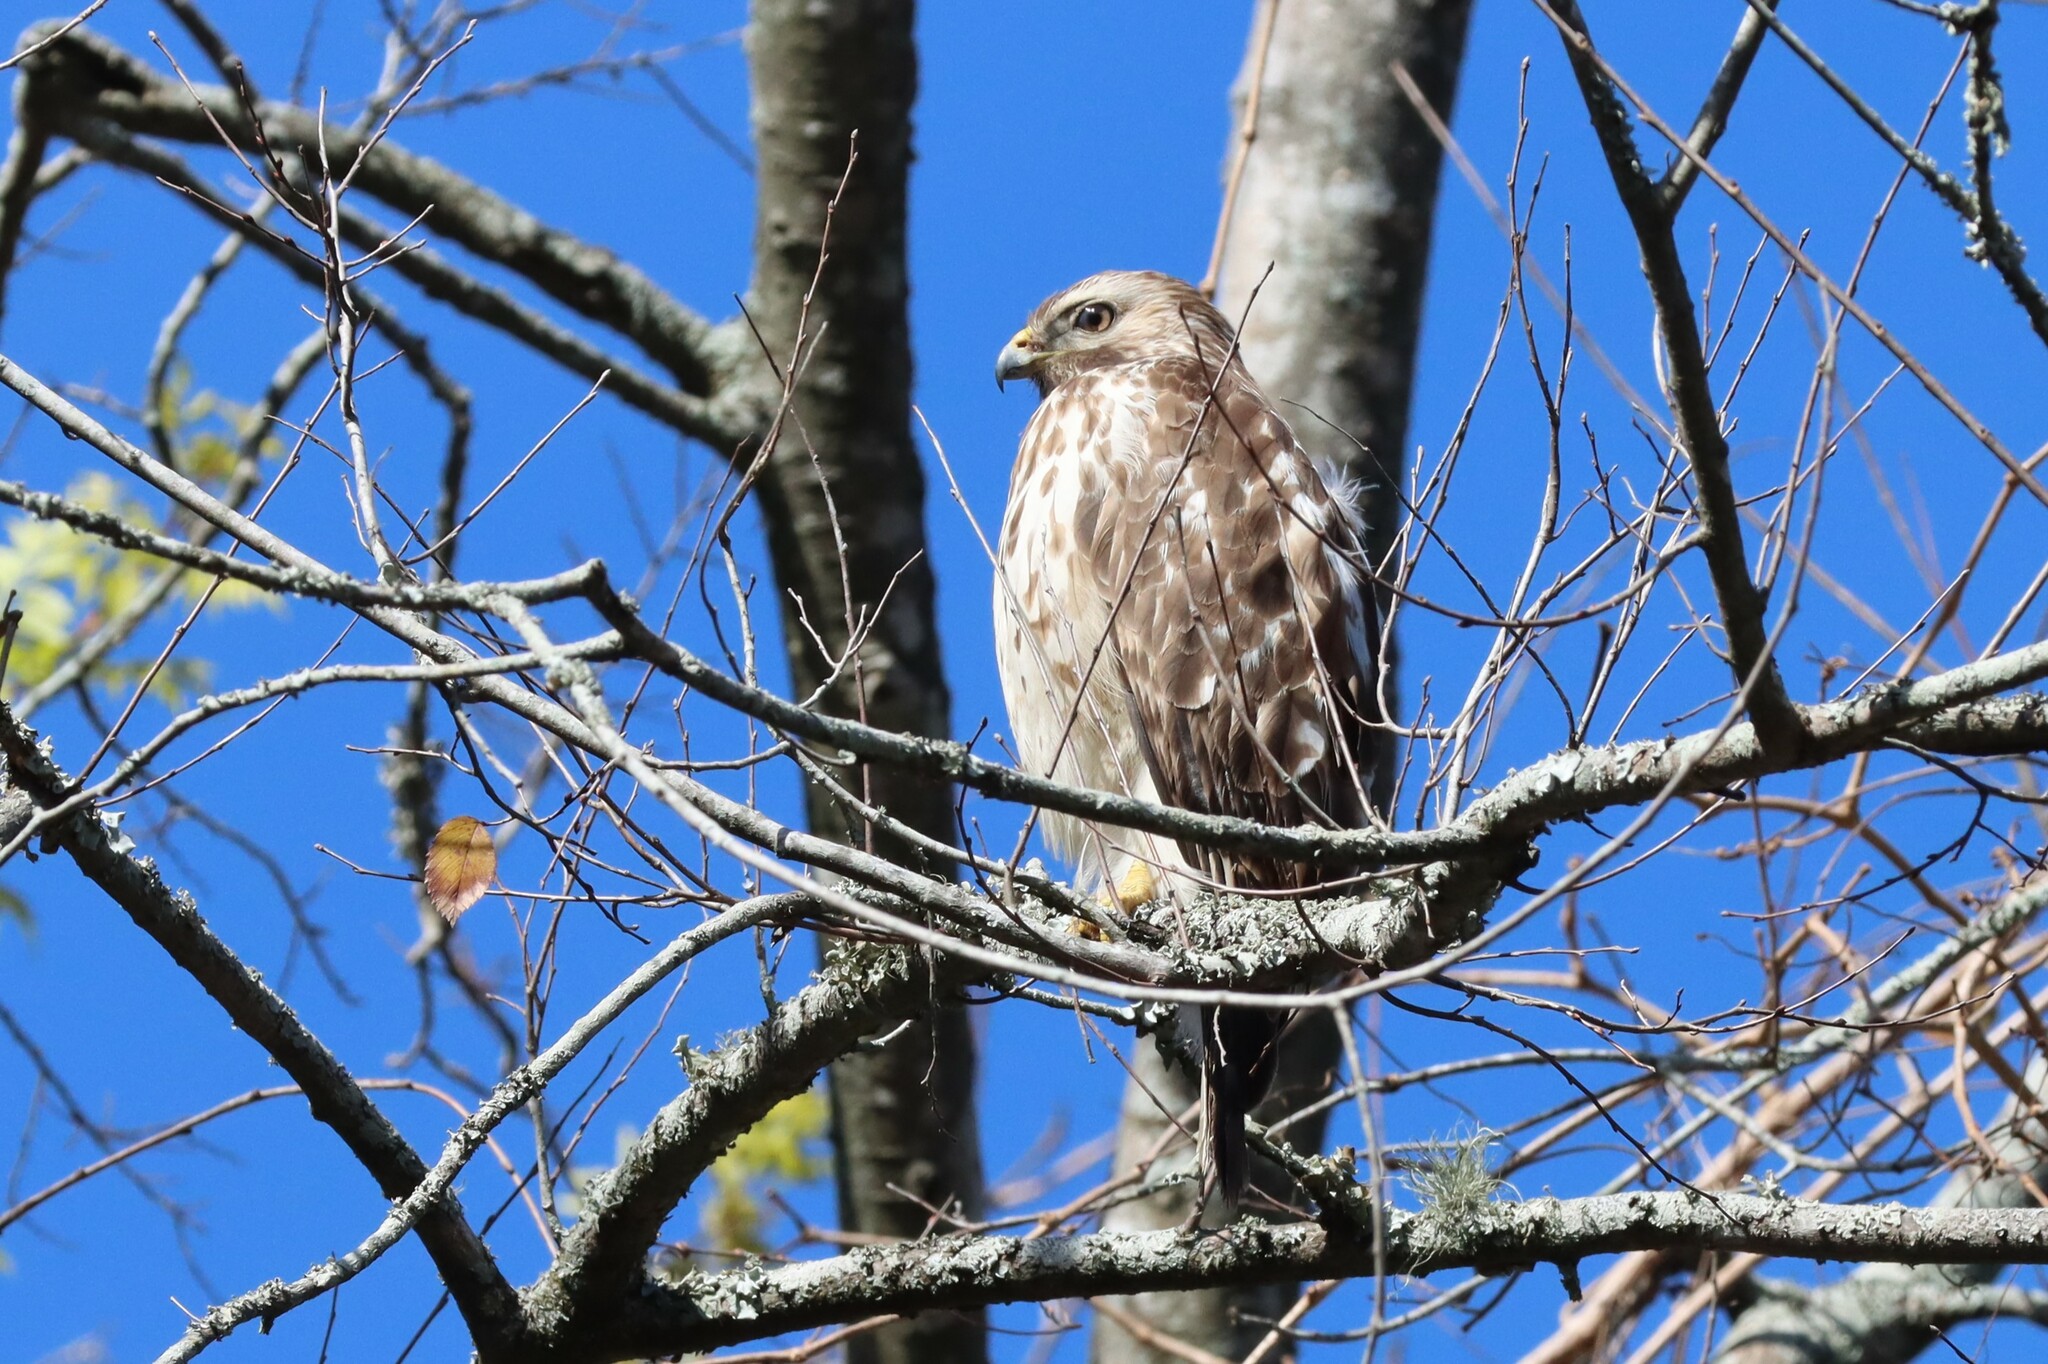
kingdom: Animalia
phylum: Chordata
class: Aves
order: Accipitriformes
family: Accipitridae
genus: Buteo
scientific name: Buteo lineatus
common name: Red-shouldered hawk
